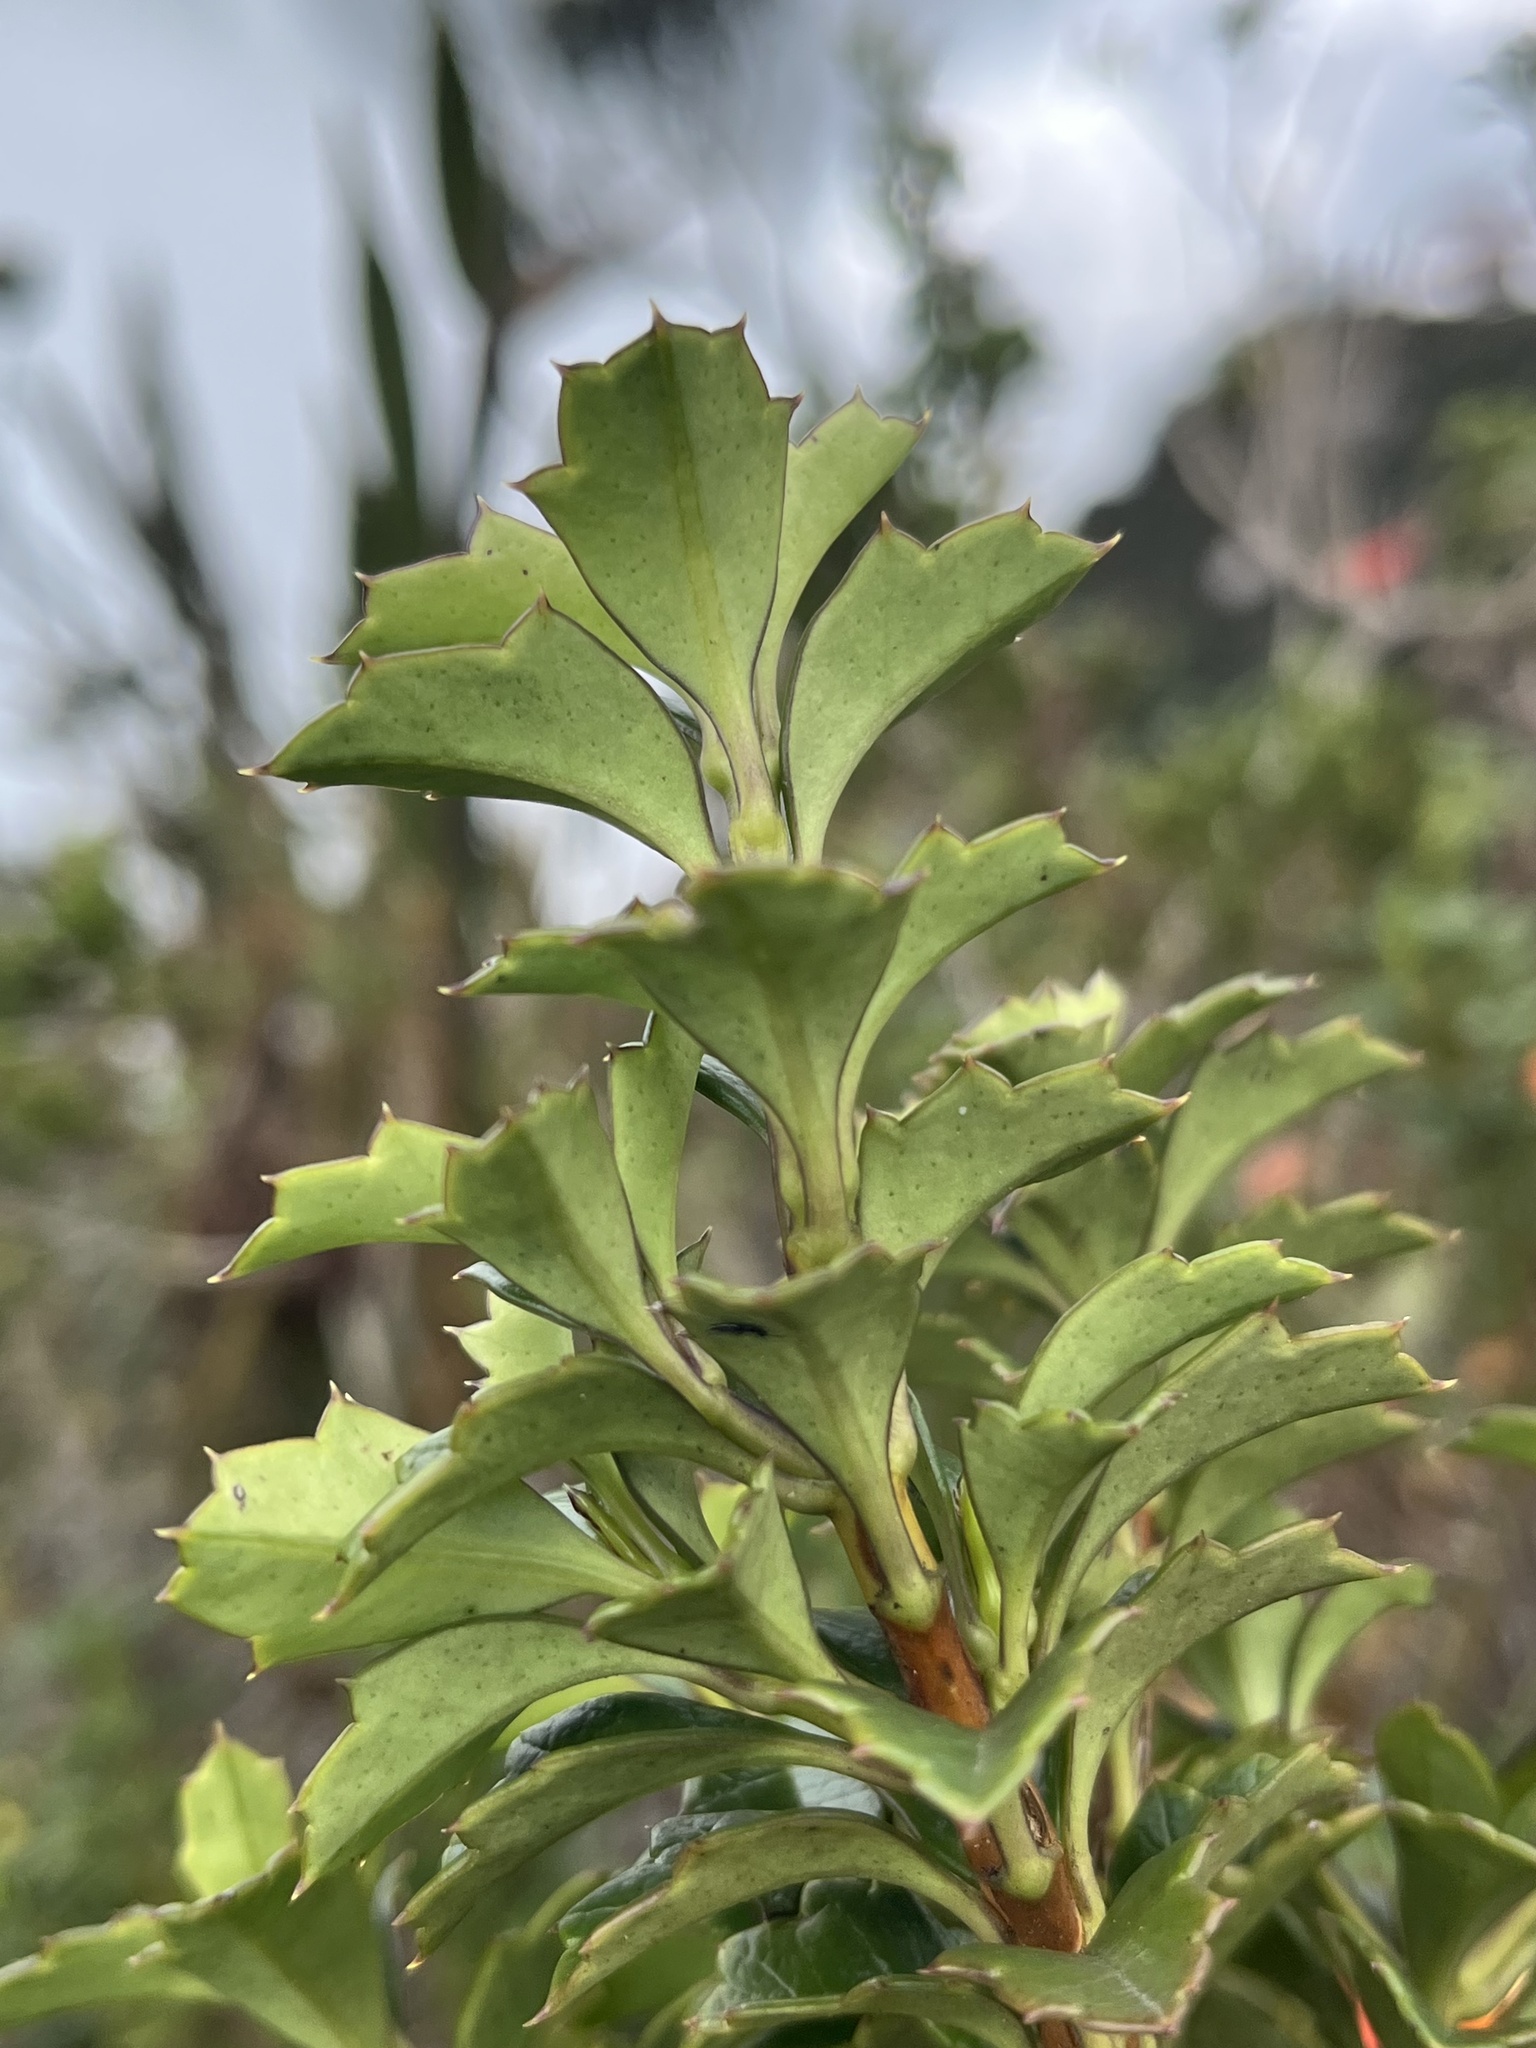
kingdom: Plantae
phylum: Tracheophyta
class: Magnoliopsida
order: Bruniales
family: Columelliaceae
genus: Desfontainia
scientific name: Desfontainia splendens
